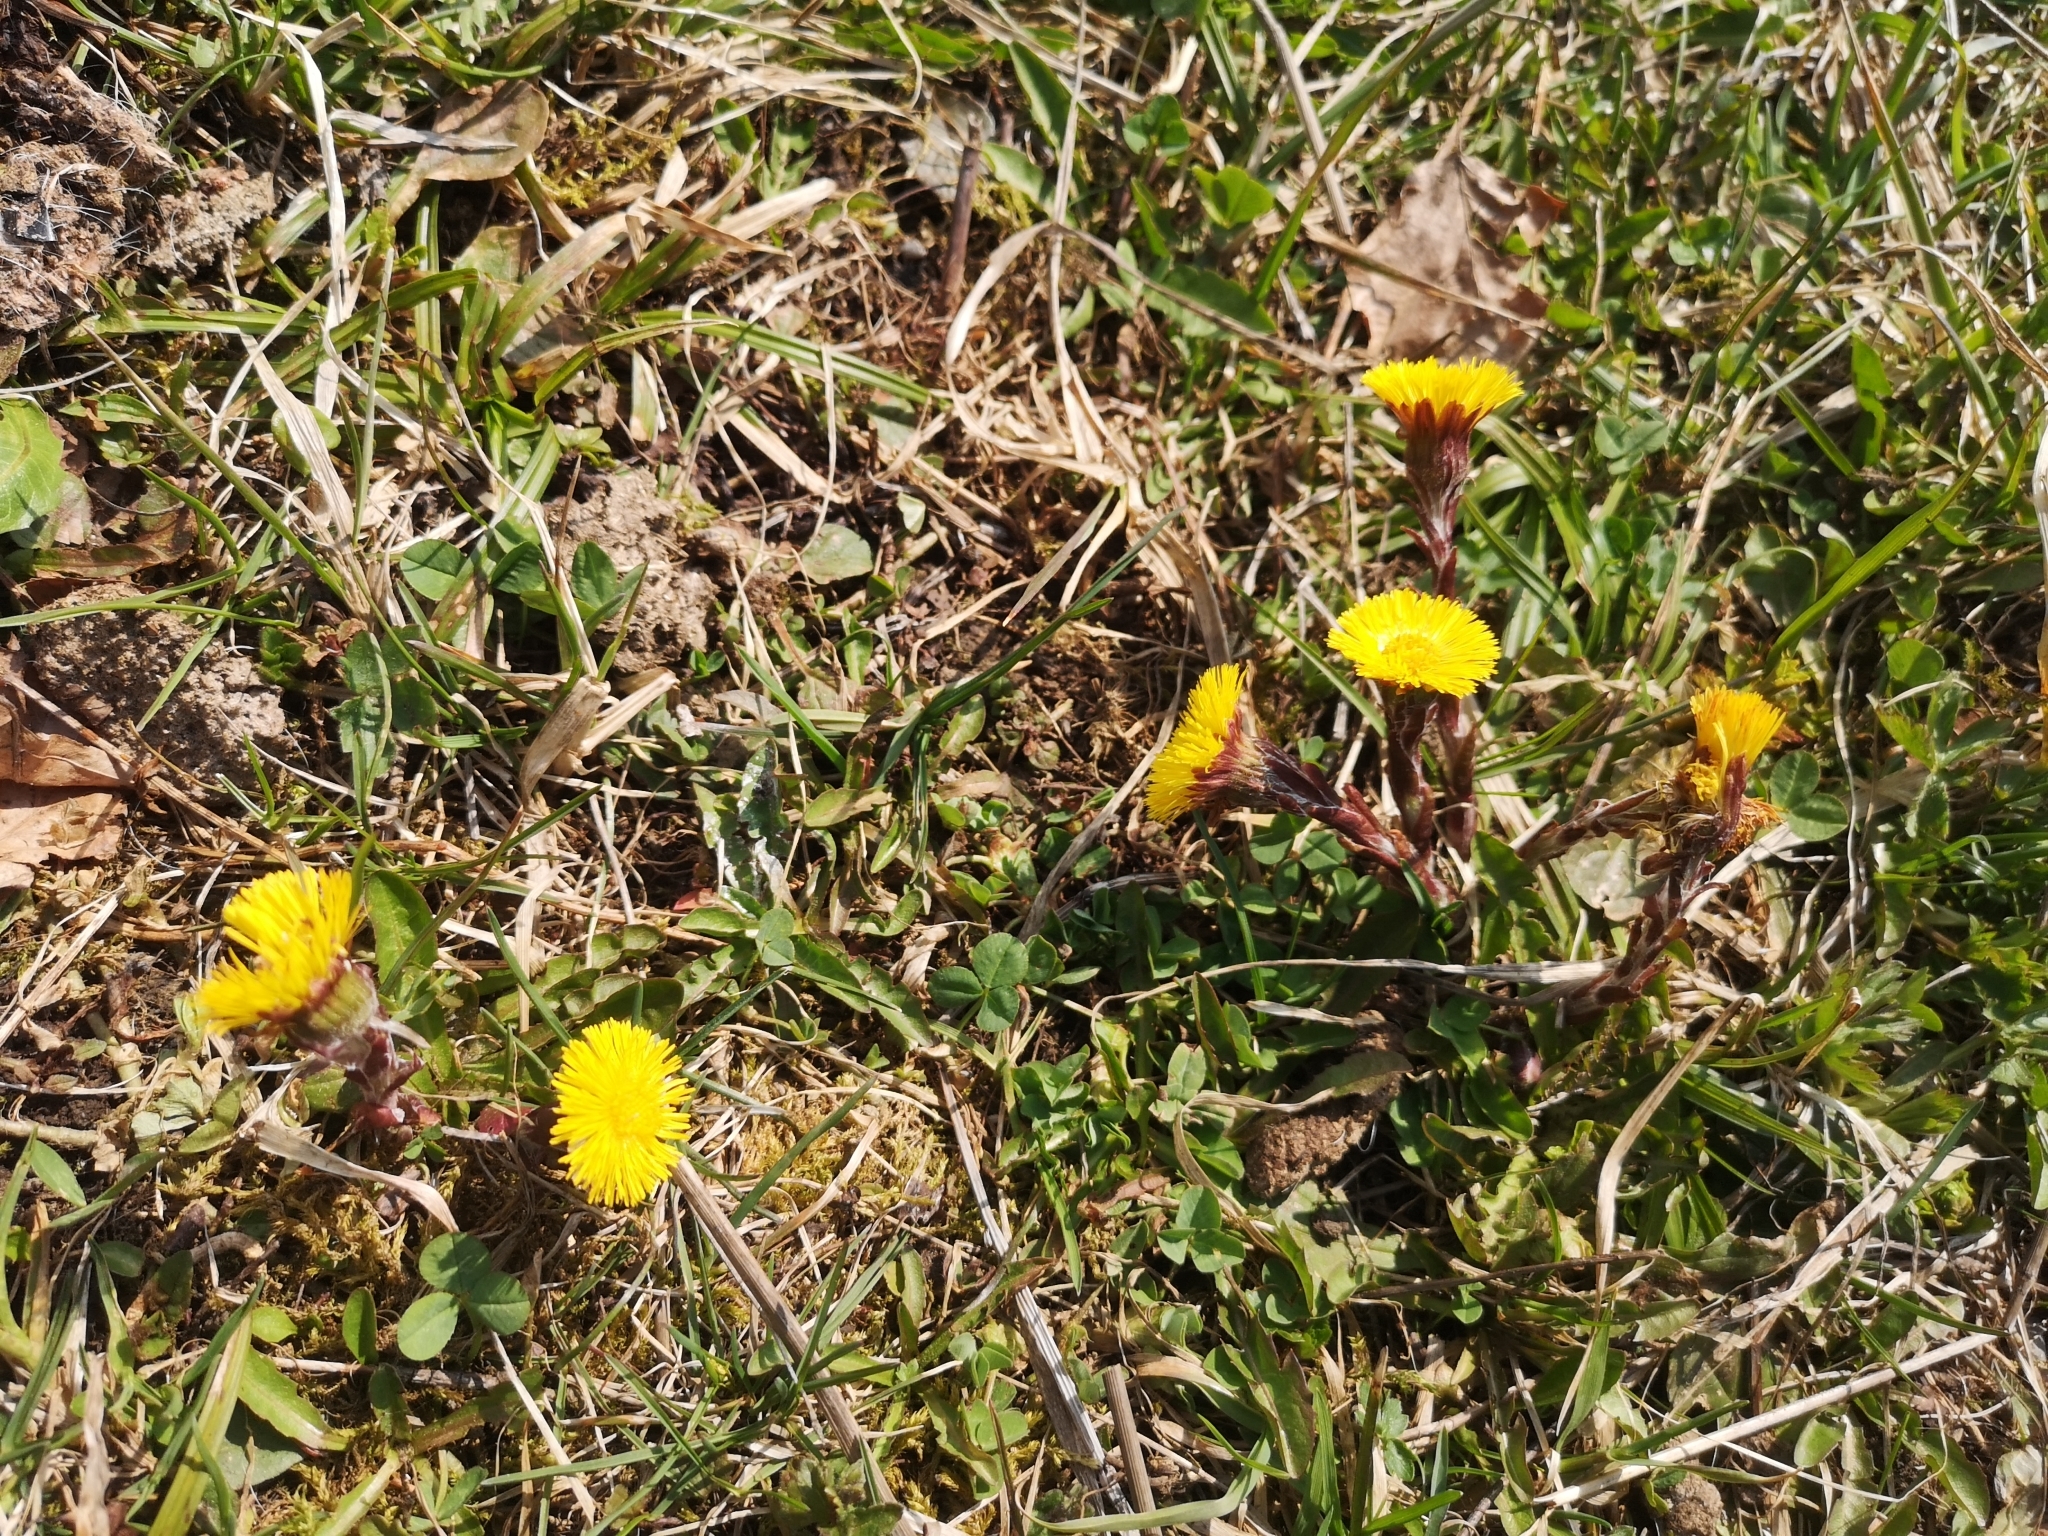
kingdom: Plantae
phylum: Tracheophyta
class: Magnoliopsida
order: Asterales
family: Asteraceae
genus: Tussilago
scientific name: Tussilago farfara
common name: Coltsfoot
